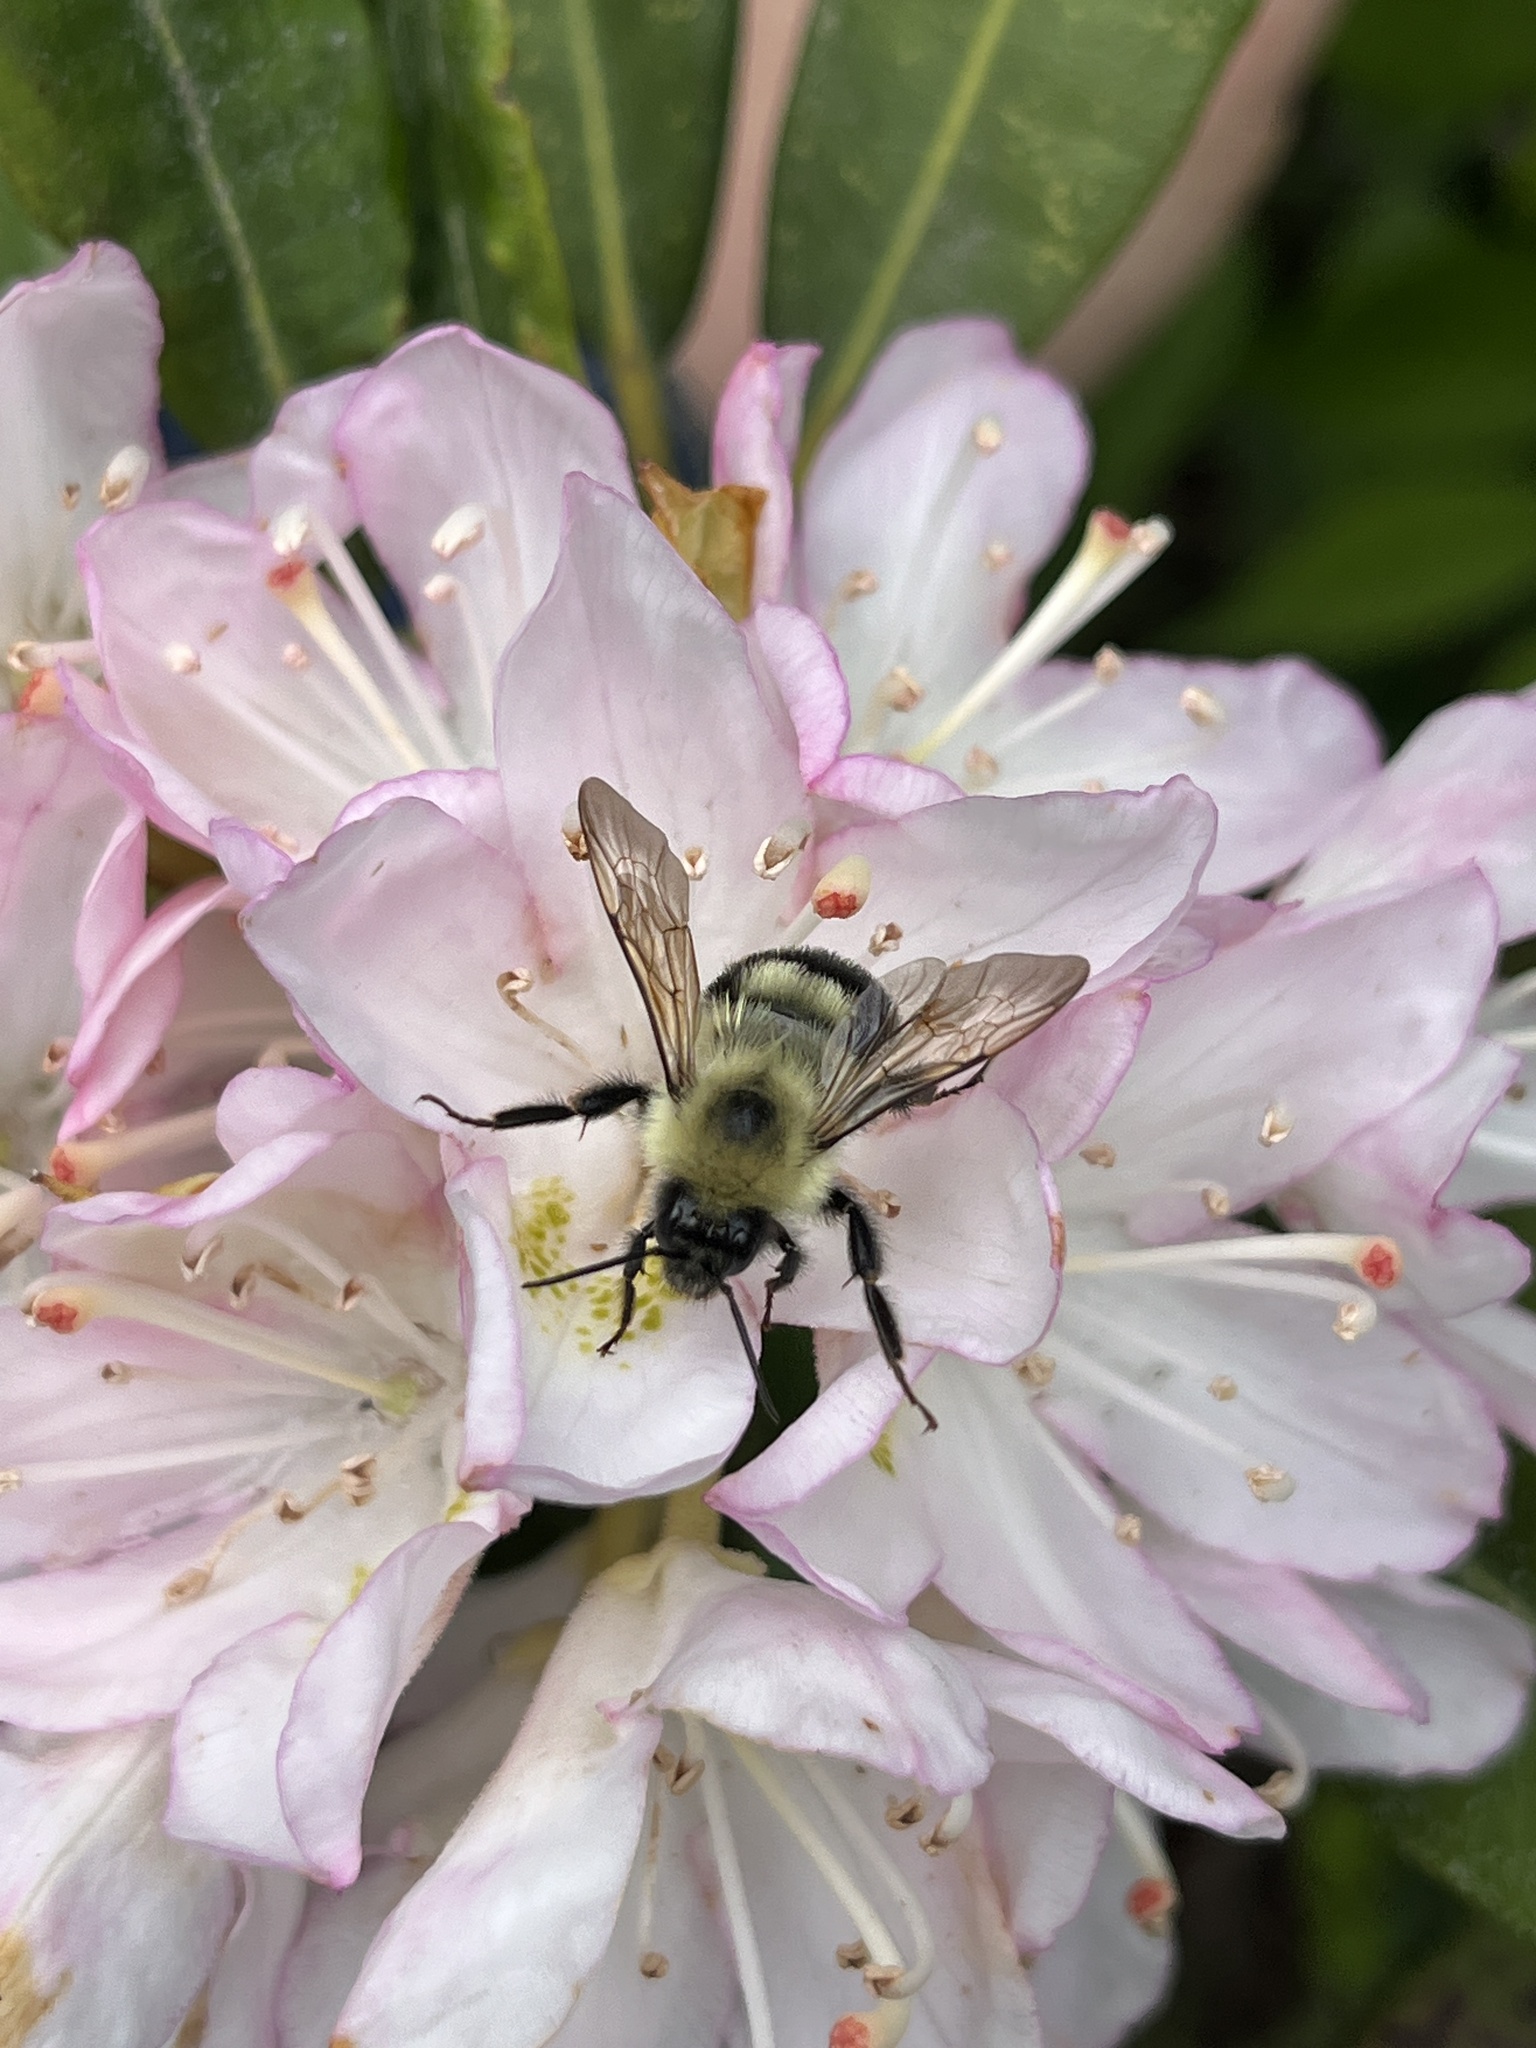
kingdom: Animalia
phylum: Arthropoda
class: Insecta
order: Hymenoptera
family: Apidae
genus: Bombus
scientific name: Bombus bimaculatus
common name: Two-spotted bumble bee
